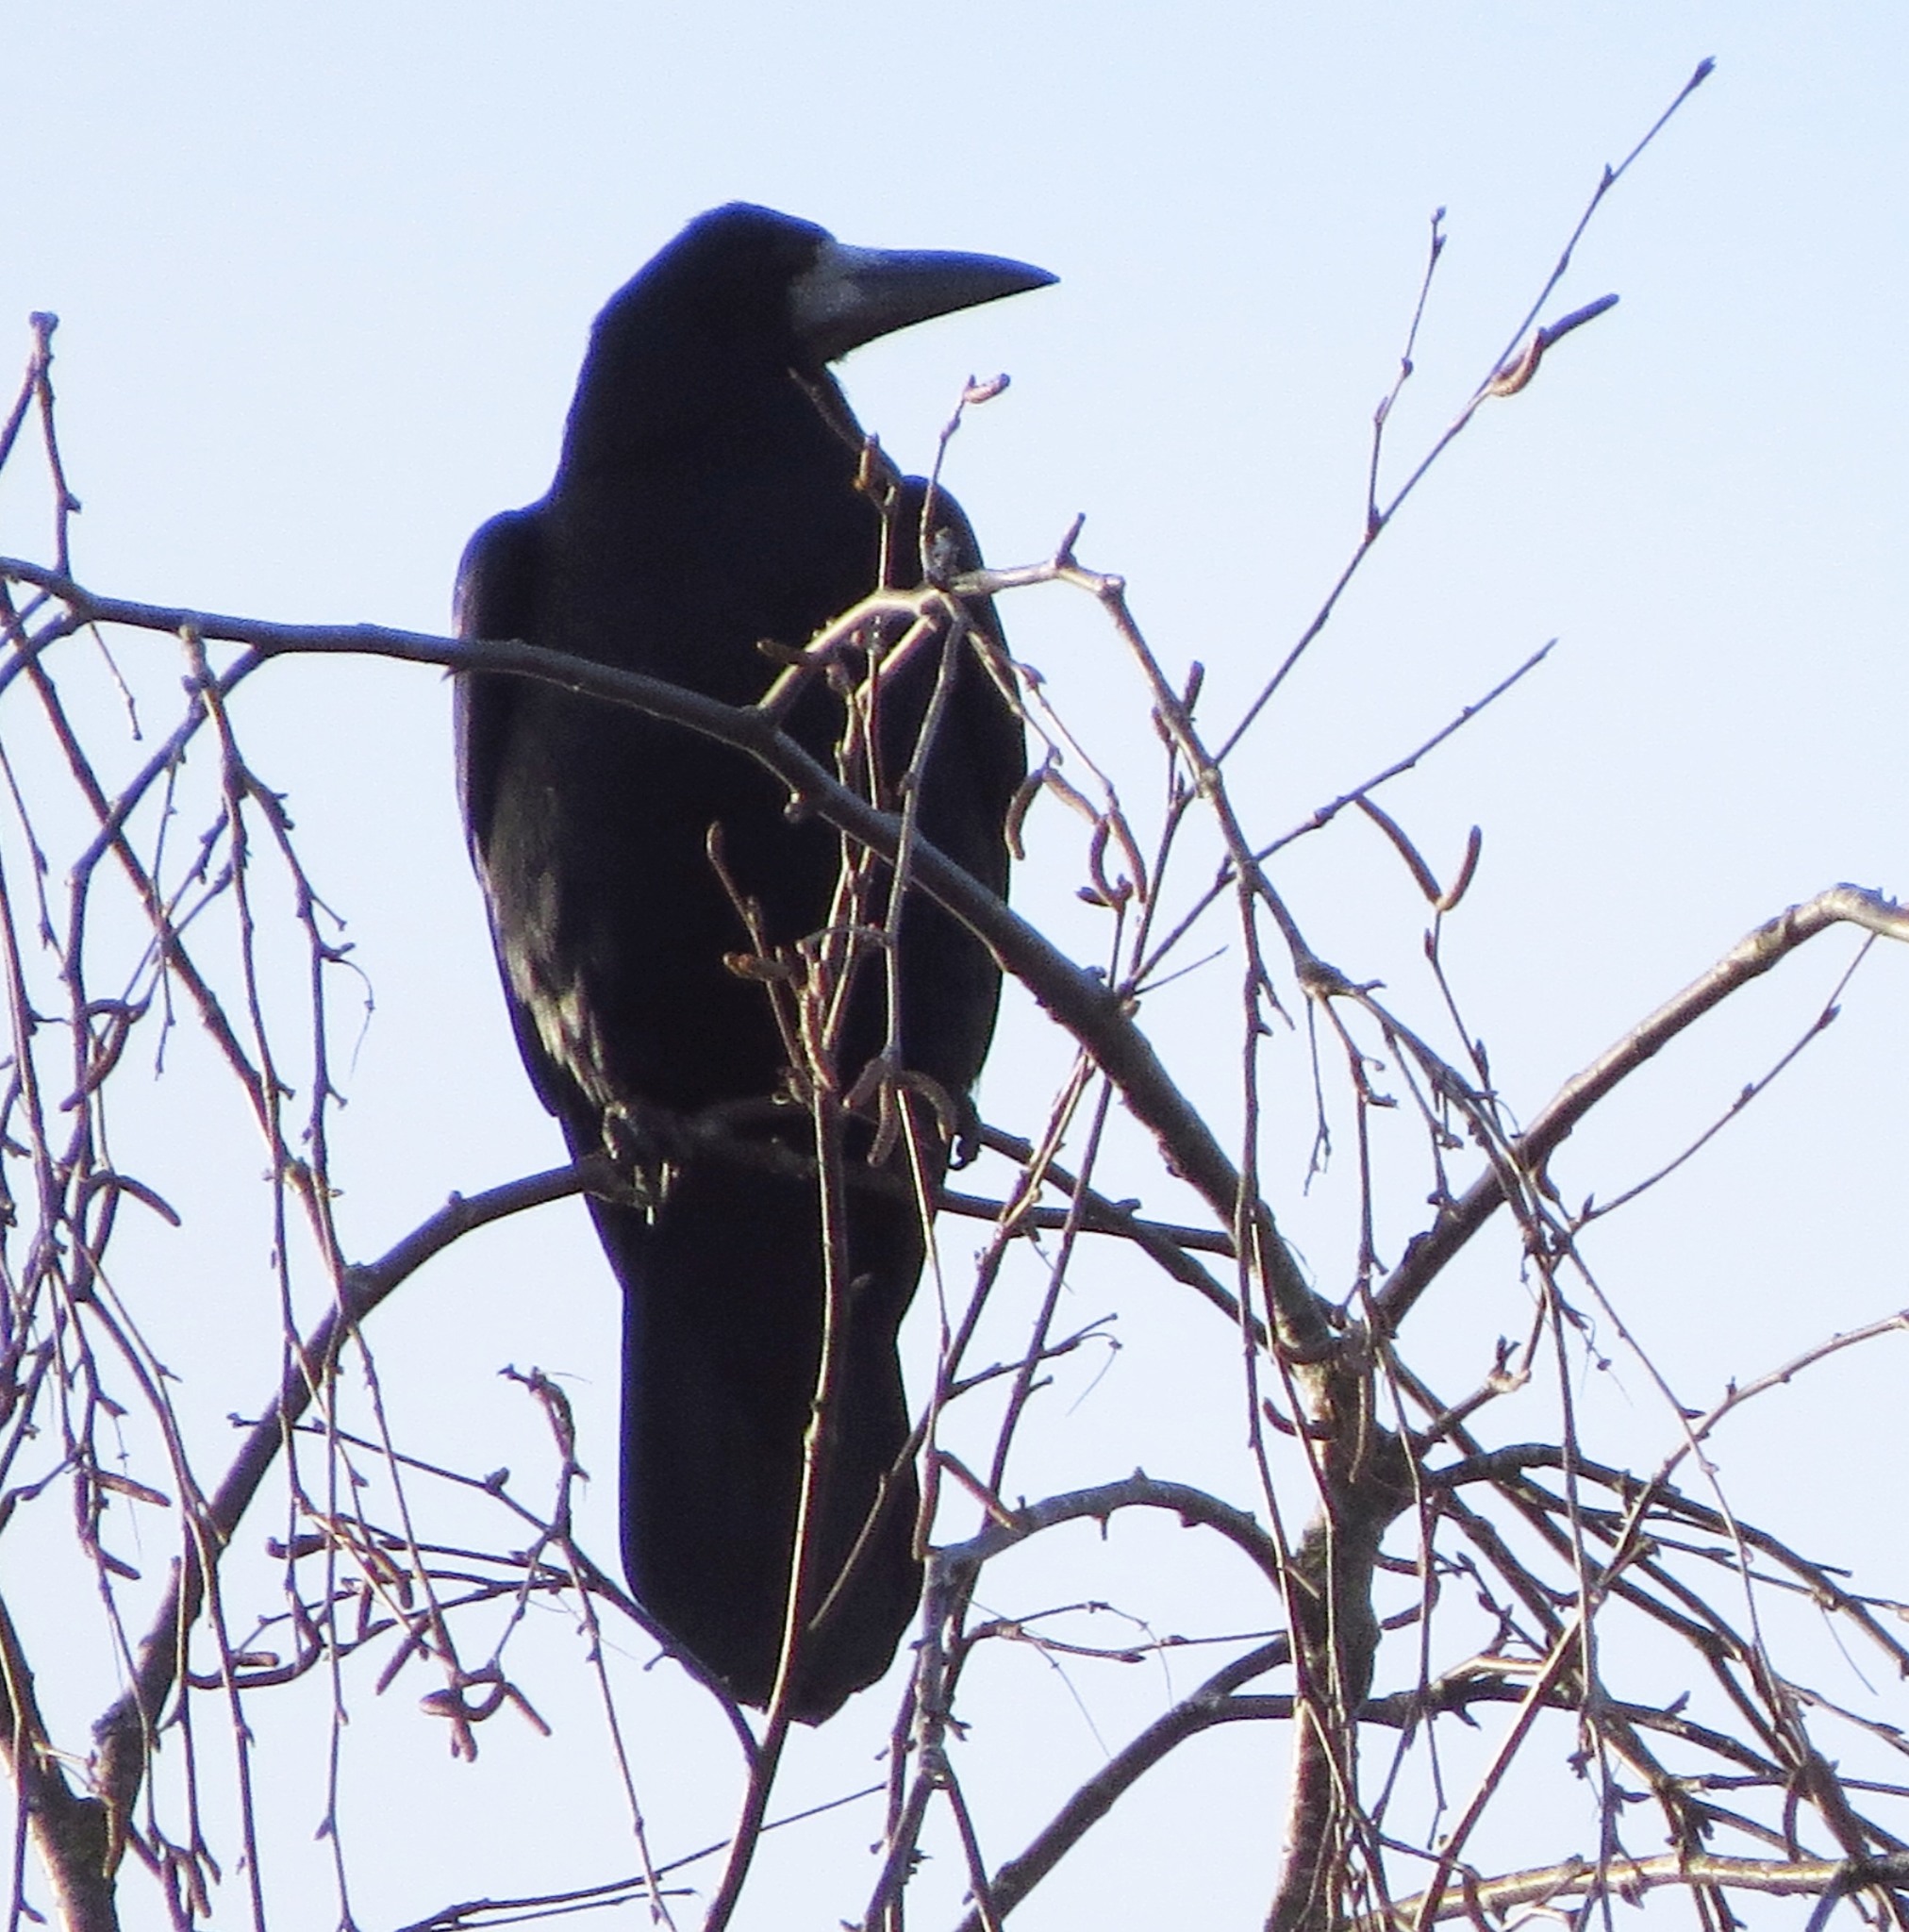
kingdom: Animalia
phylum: Chordata
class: Aves
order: Passeriformes
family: Corvidae
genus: Corvus
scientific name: Corvus frugilegus
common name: Rook
